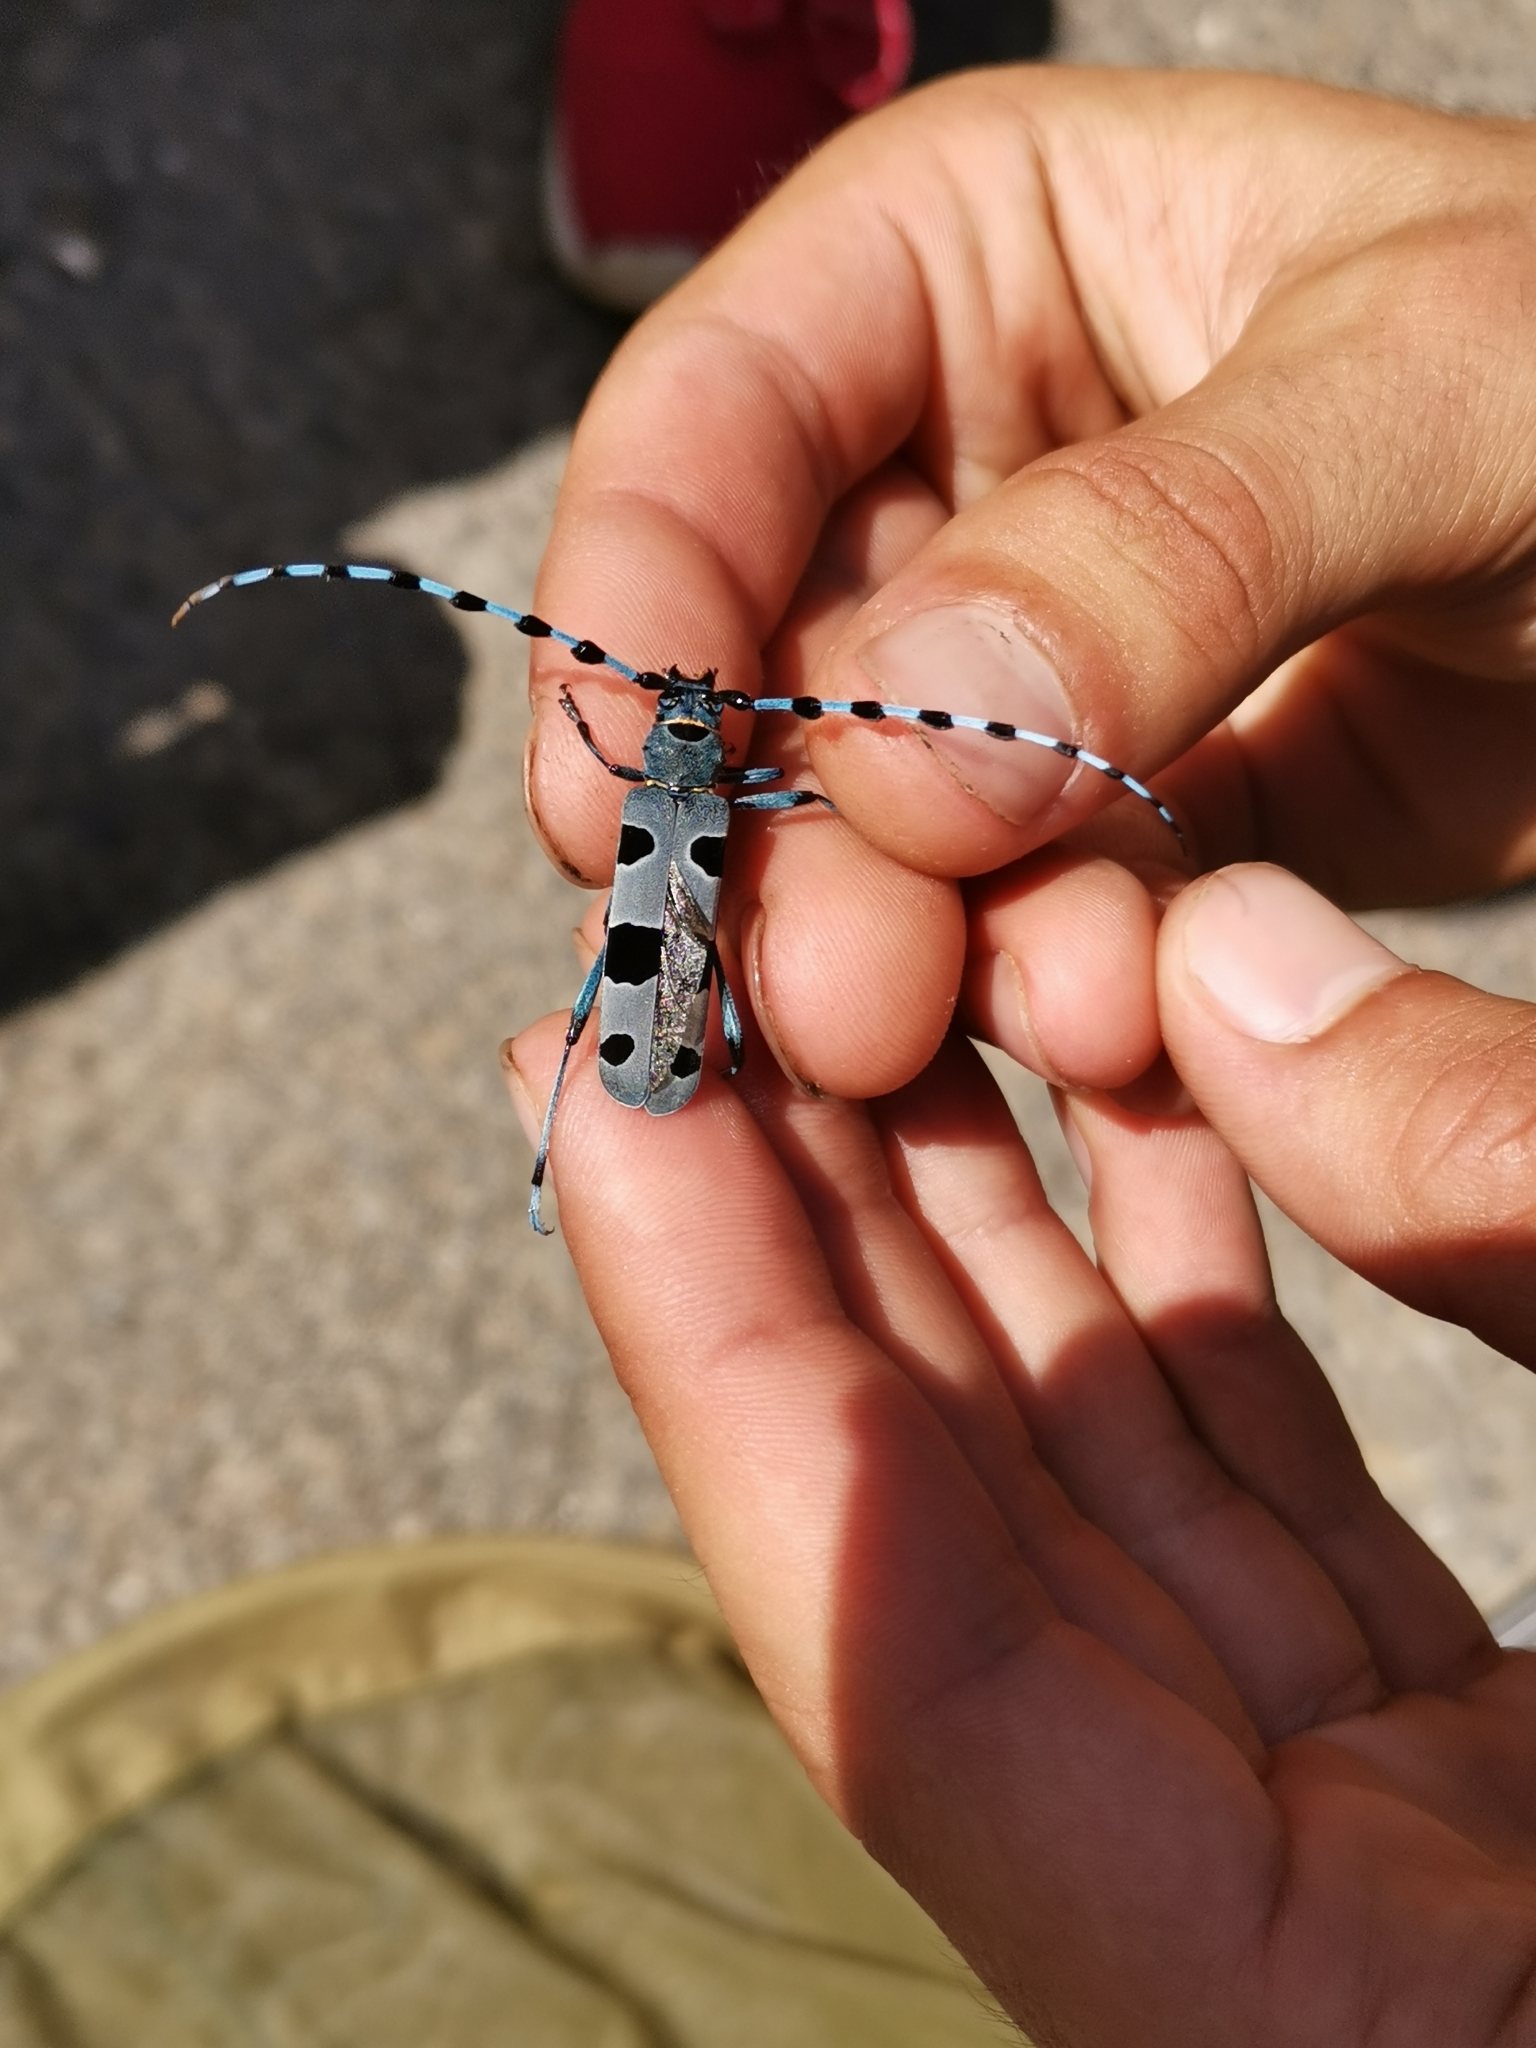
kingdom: Animalia
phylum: Arthropoda
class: Insecta
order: Coleoptera
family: Cerambycidae
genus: Rosalia
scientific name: Rosalia alpina
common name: Rosalia longicorn
